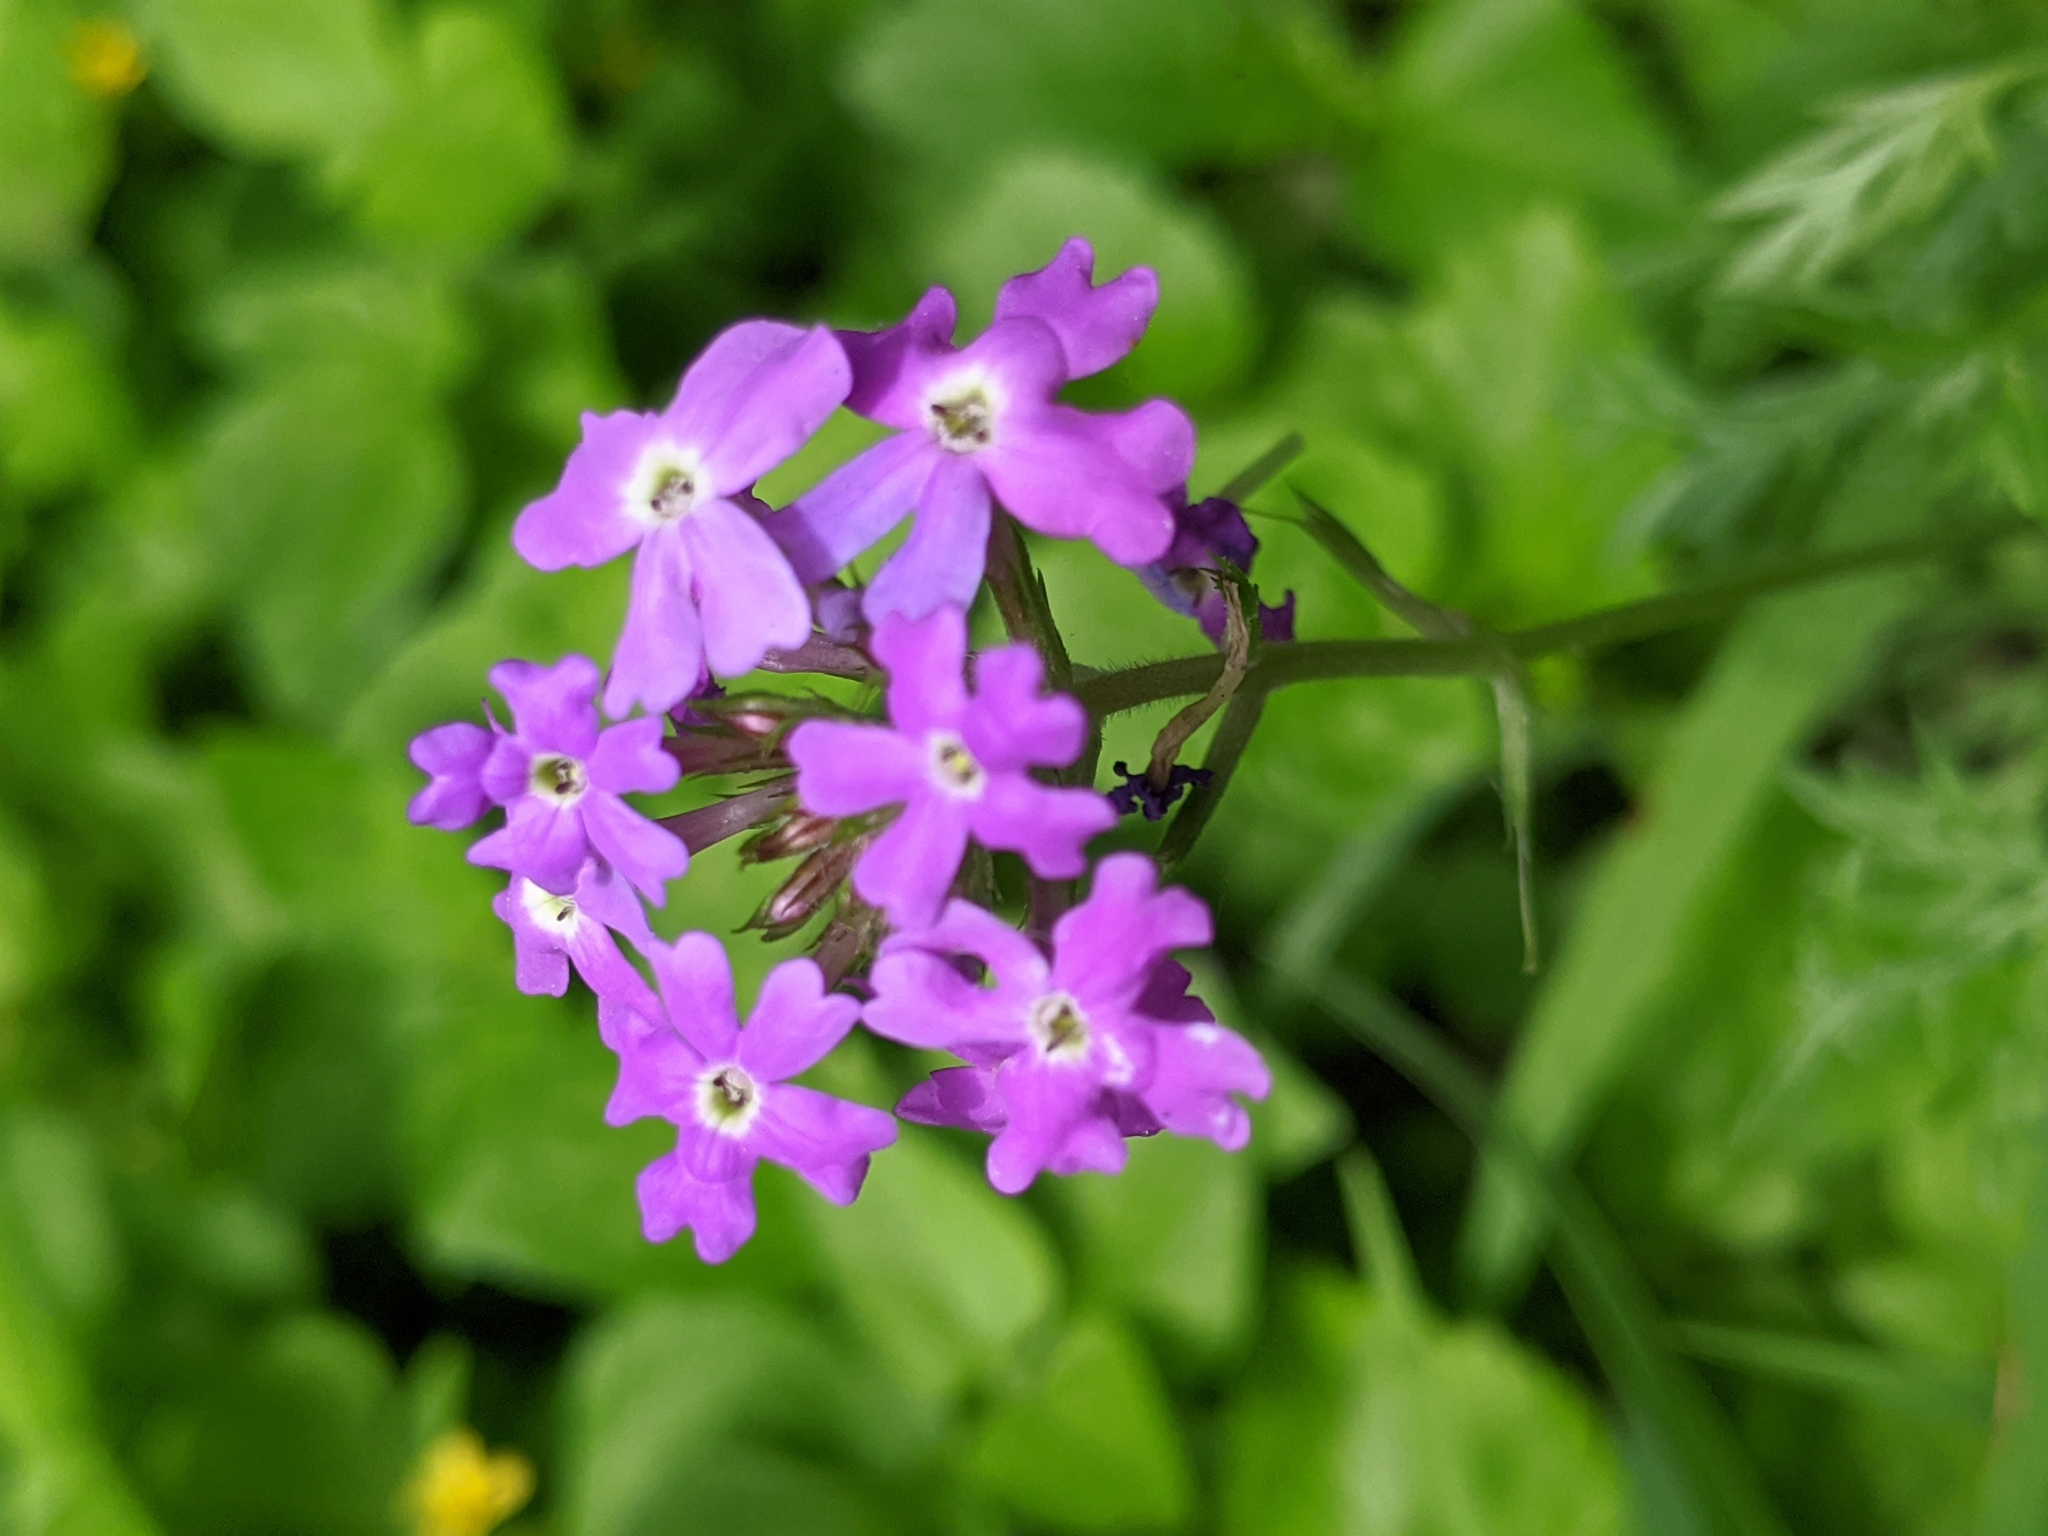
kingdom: Plantae
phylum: Tracheophyta
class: Magnoliopsida
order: Lamiales
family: Verbenaceae
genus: Verbena
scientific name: Verbena aristigera
